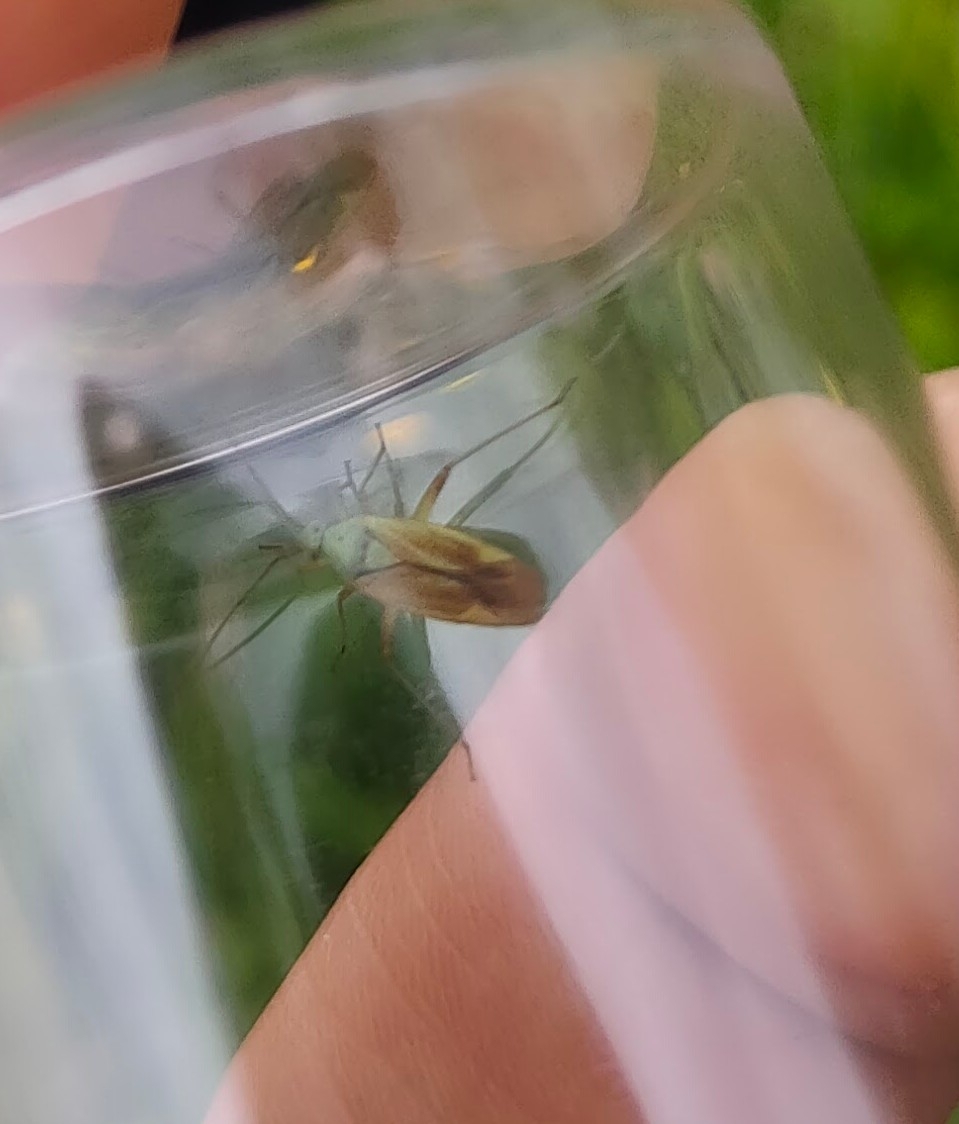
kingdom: Animalia
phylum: Arthropoda
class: Insecta
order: Hemiptera
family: Miridae
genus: Closterotomus
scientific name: Closterotomus norvegicus
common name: Plant bug
